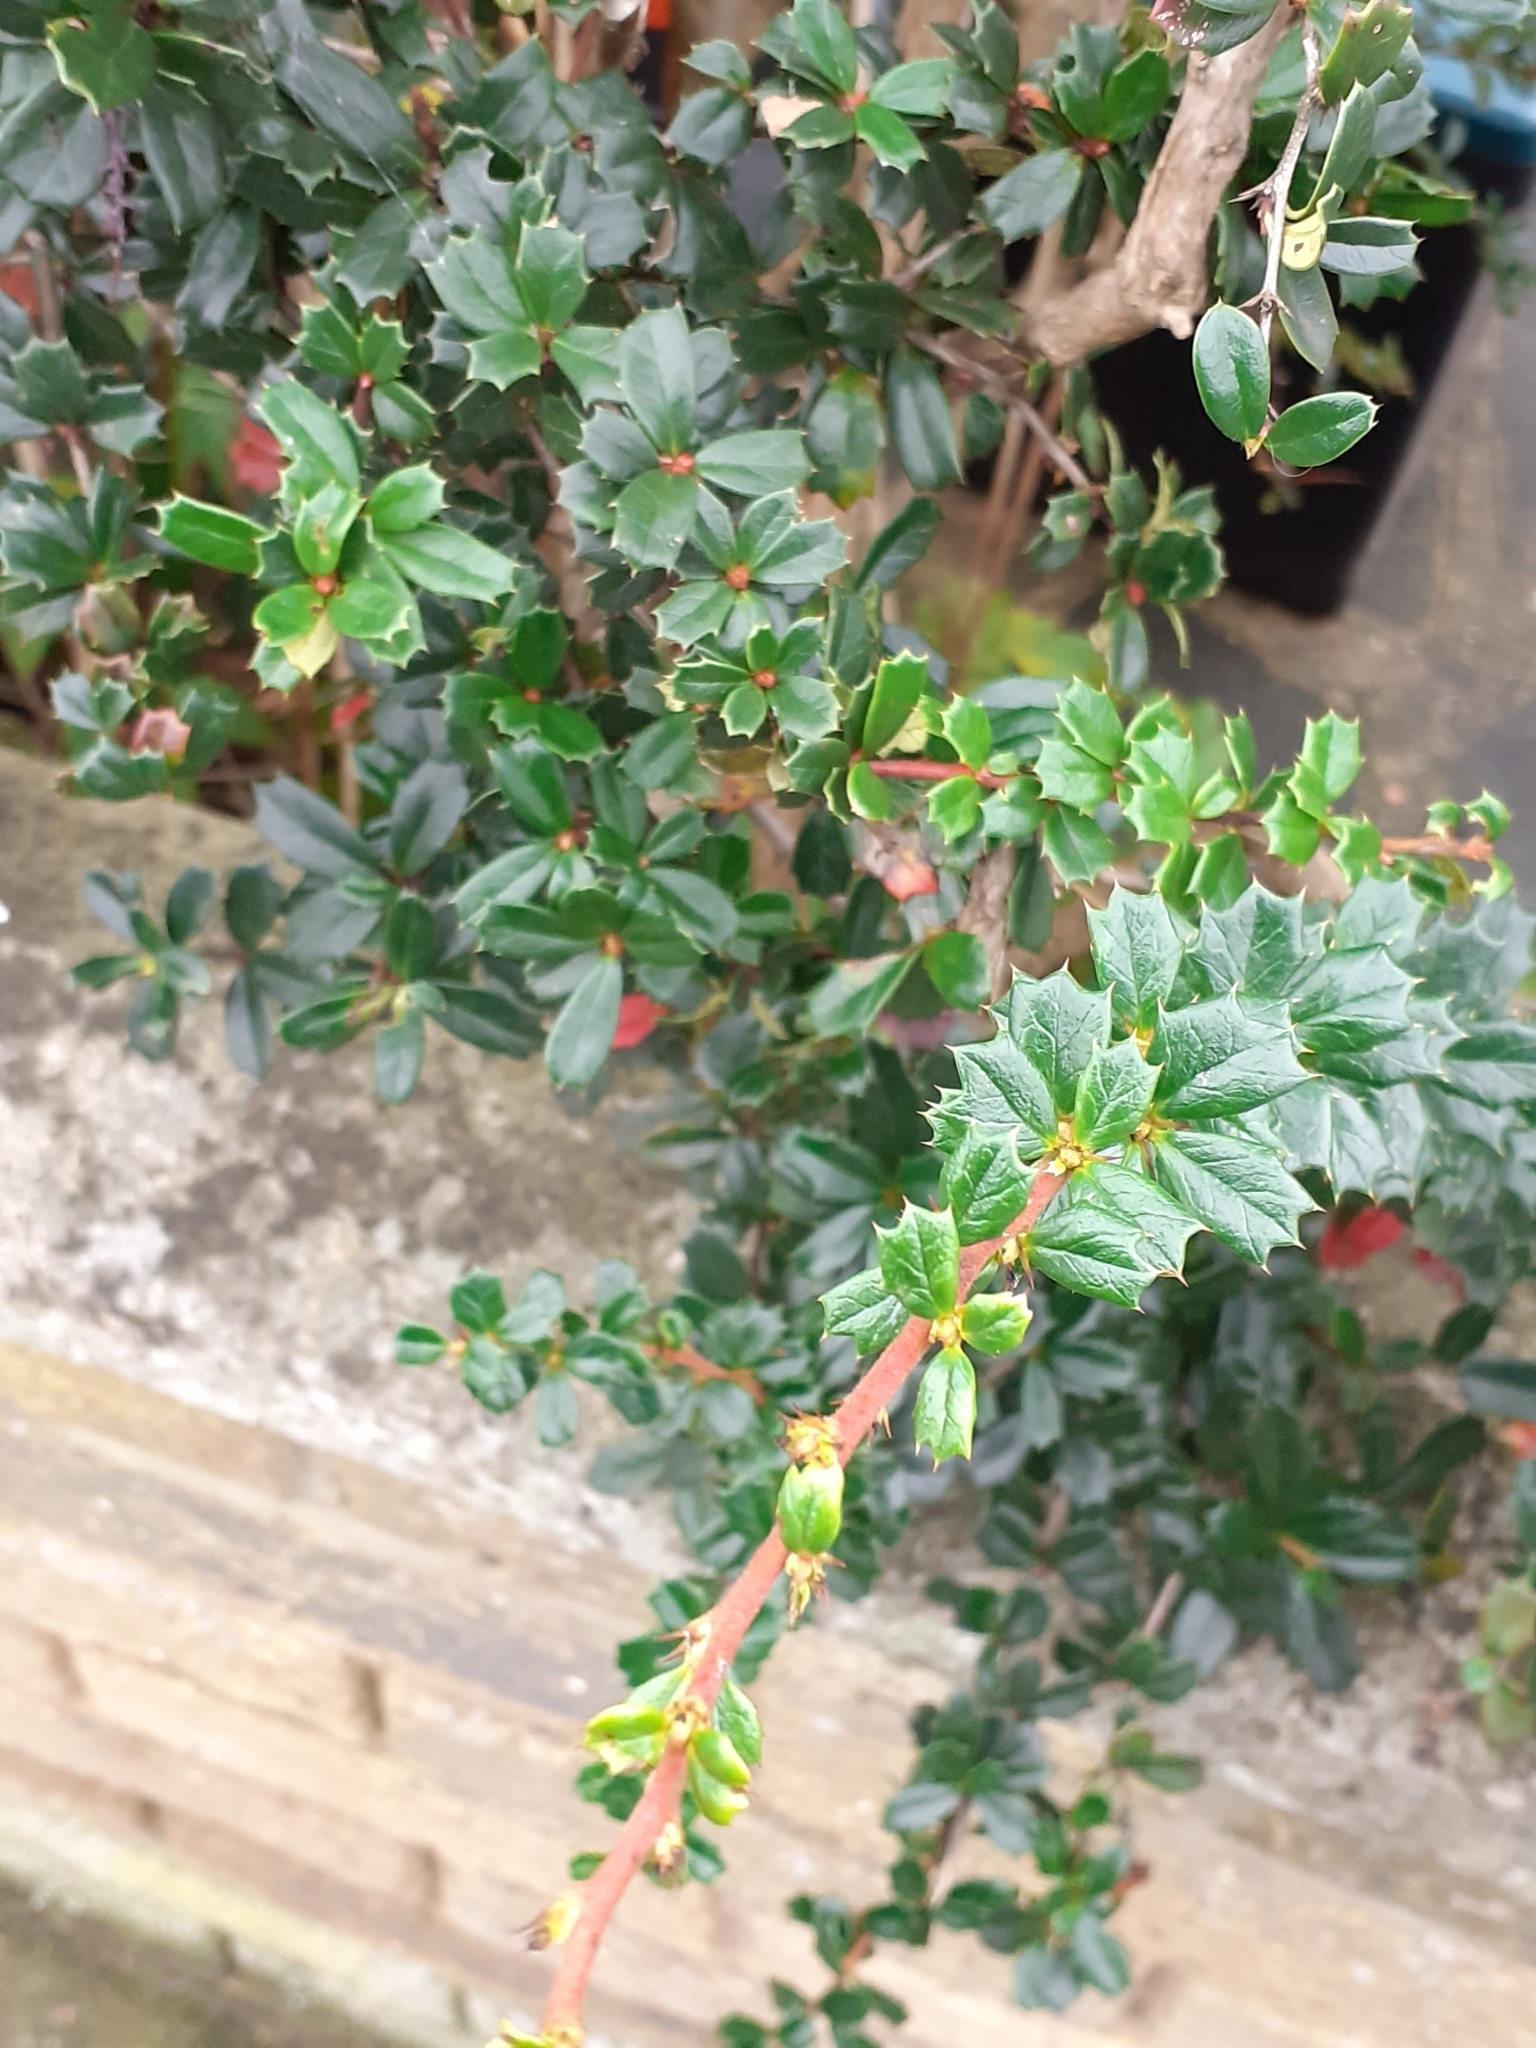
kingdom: Plantae
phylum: Tracheophyta
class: Magnoliopsida
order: Ranunculales
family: Berberidaceae
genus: Berberis
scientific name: Berberis darwinii
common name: Darwin's barberry
